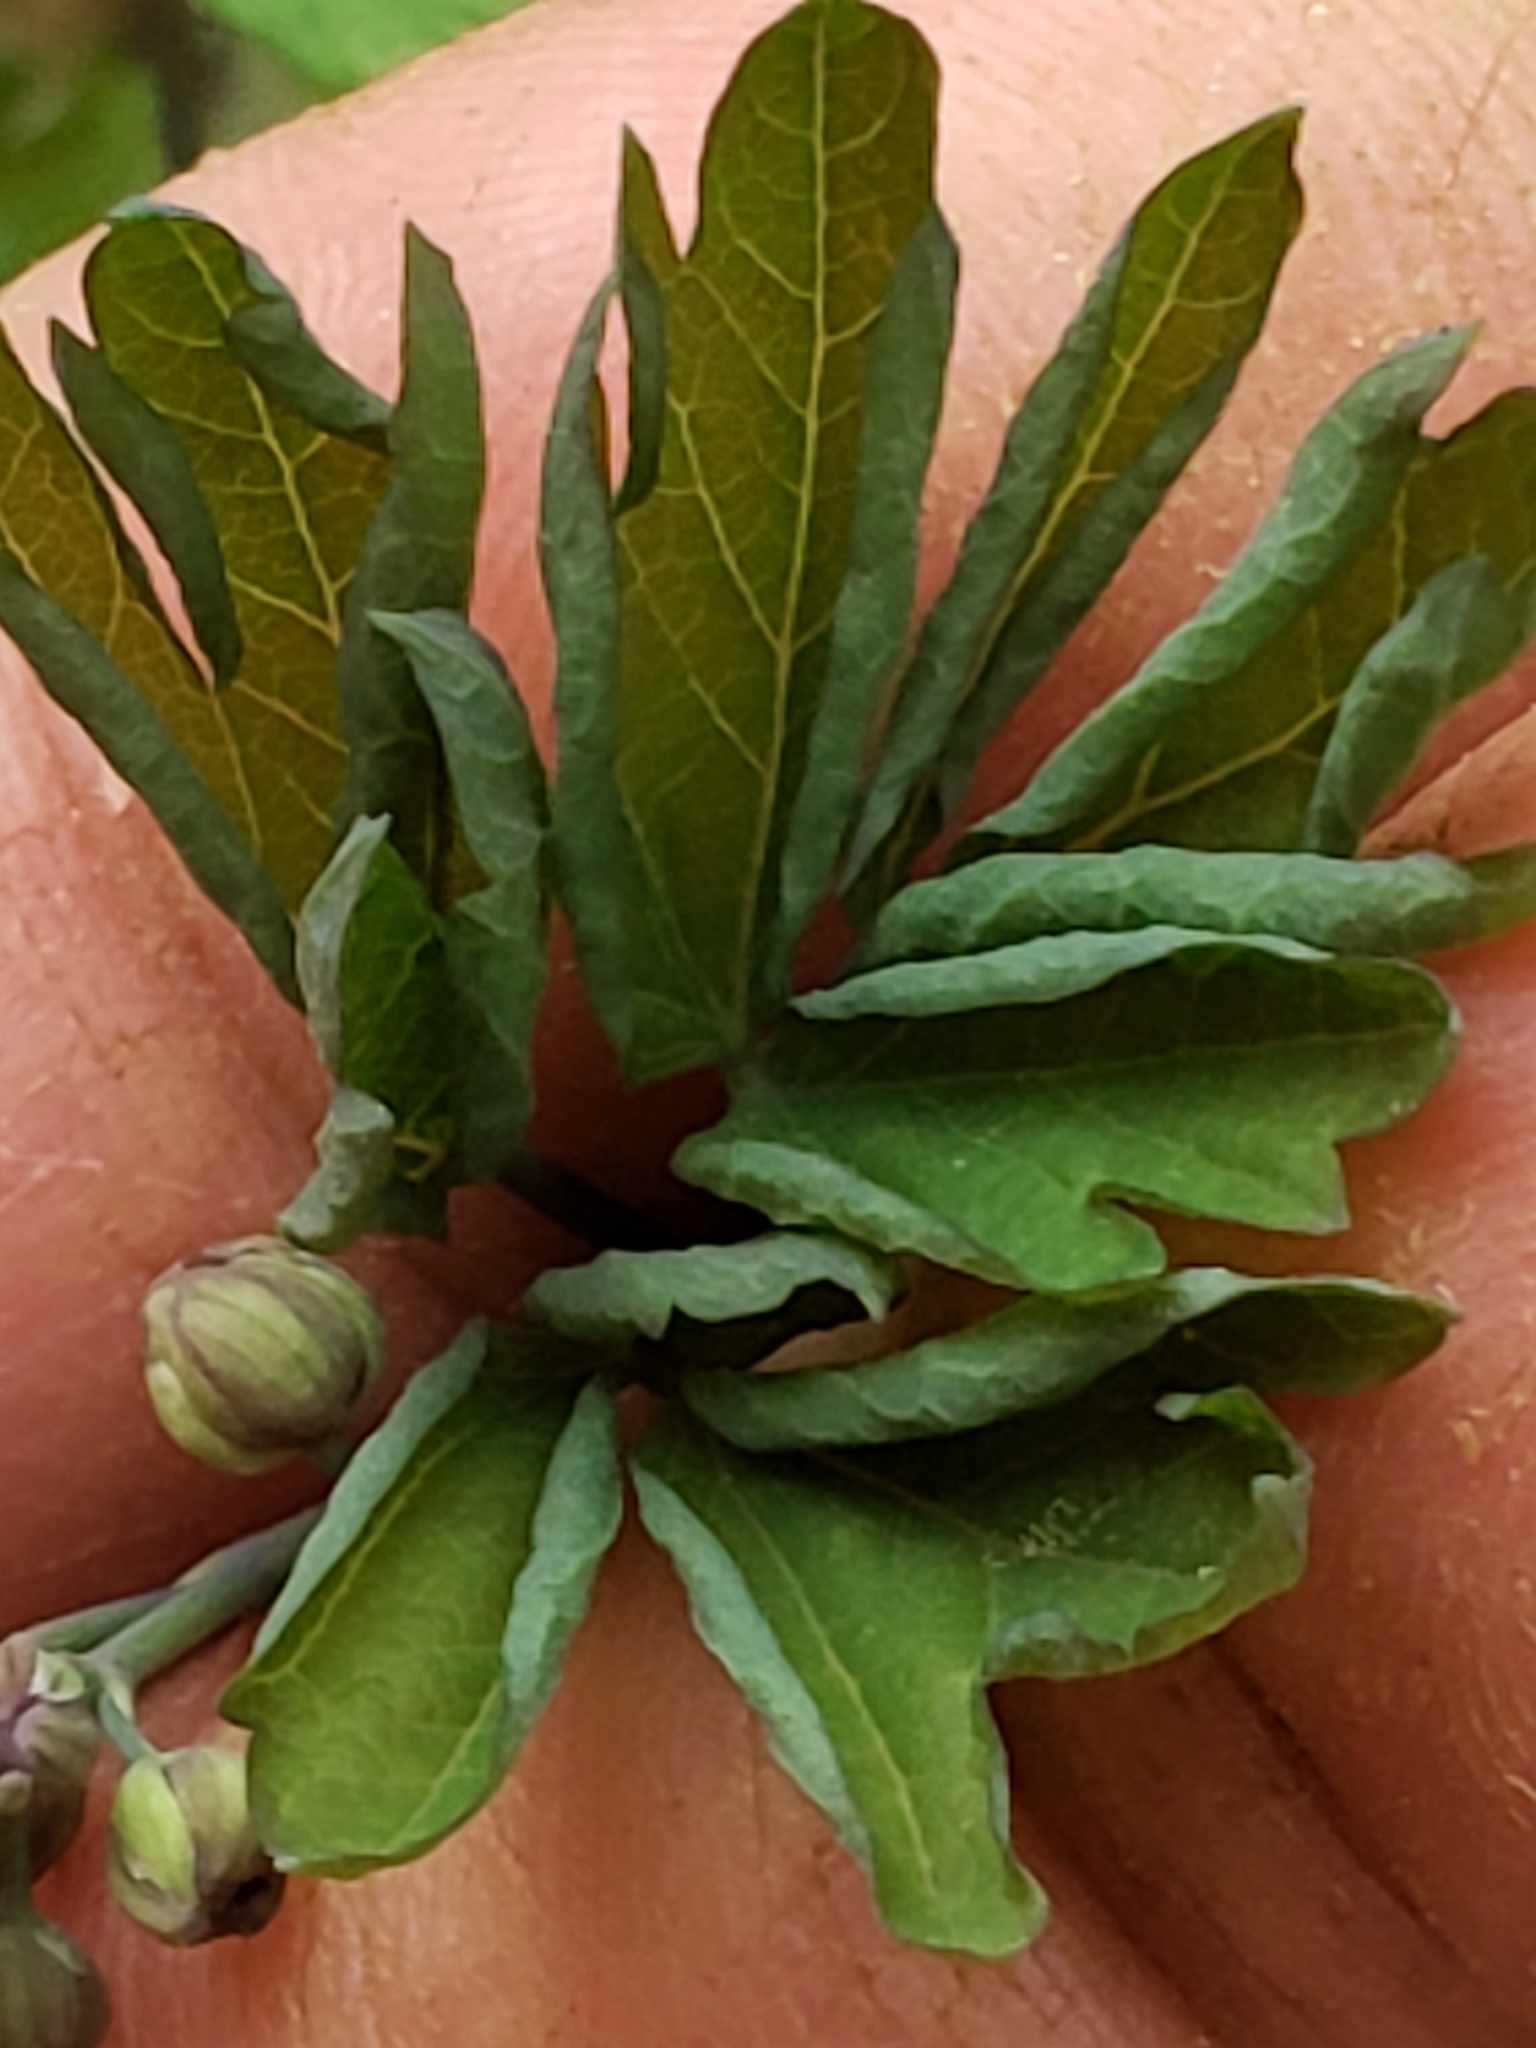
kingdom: Plantae
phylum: Tracheophyta
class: Magnoliopsida
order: Ranunculales
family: Berberidaceae
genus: Caulophyllum
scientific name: Caulophyllum thalictroides
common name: Blue cohosh
